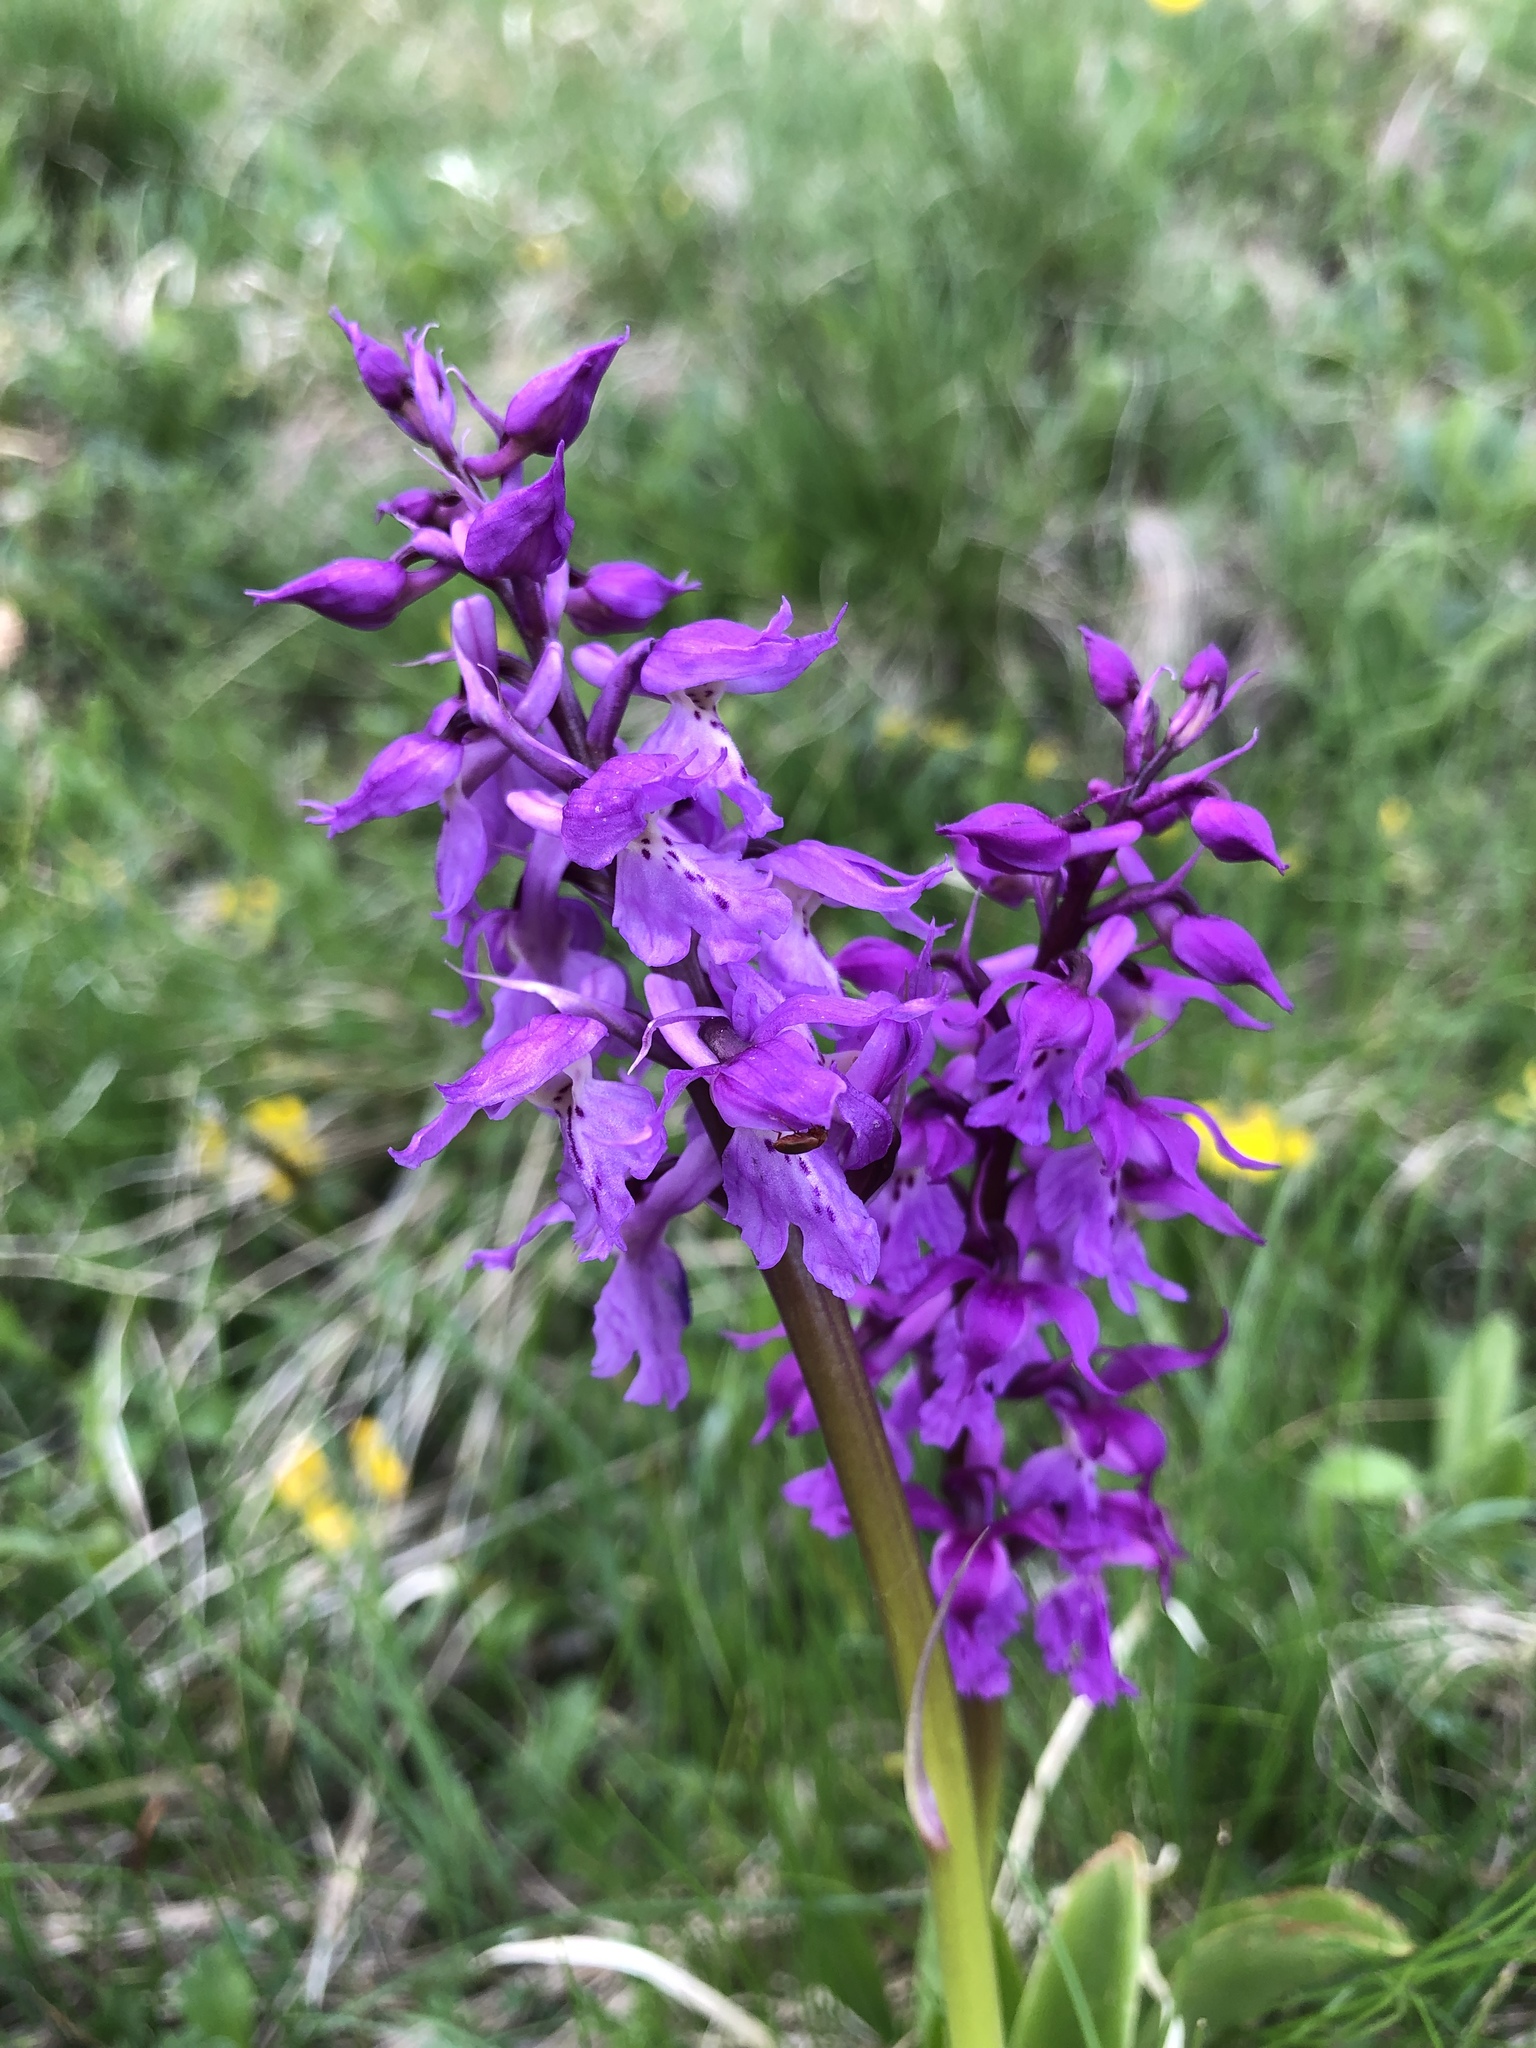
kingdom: Plantae
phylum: Tracheophyta
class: Liliopsida
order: Asparagales
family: Orchidaceae
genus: Orchis
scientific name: Orchis mascula
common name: Early-purple orchid
